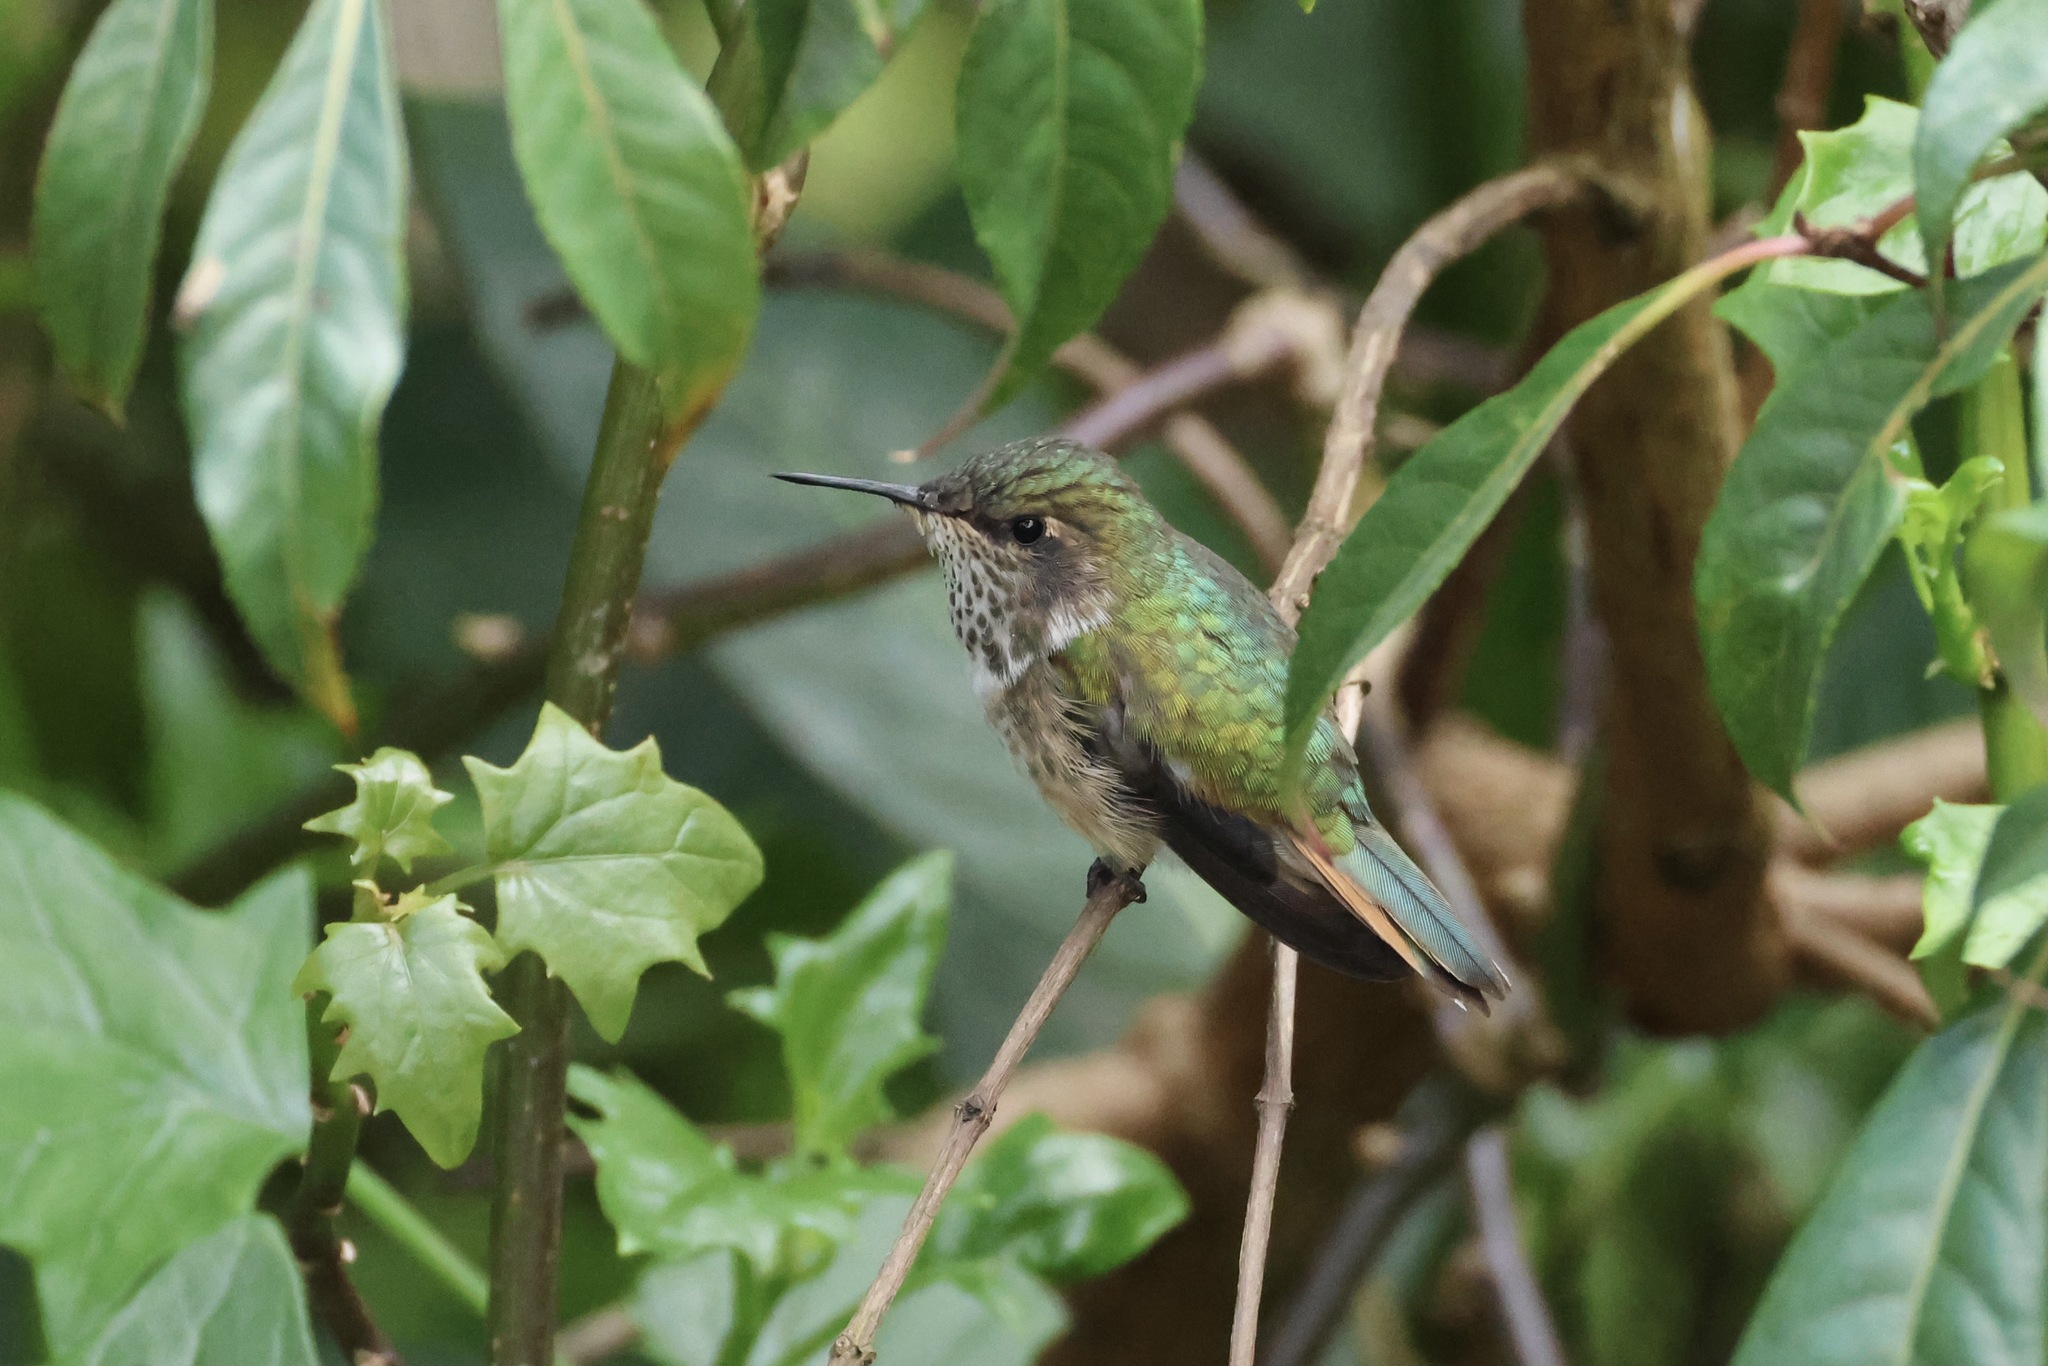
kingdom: Animalia
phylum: Chordata
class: Aves
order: Apodiformes
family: Trochilidae
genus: Selasphorus
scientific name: Selasphorus flammula
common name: Volcano hummingbird
